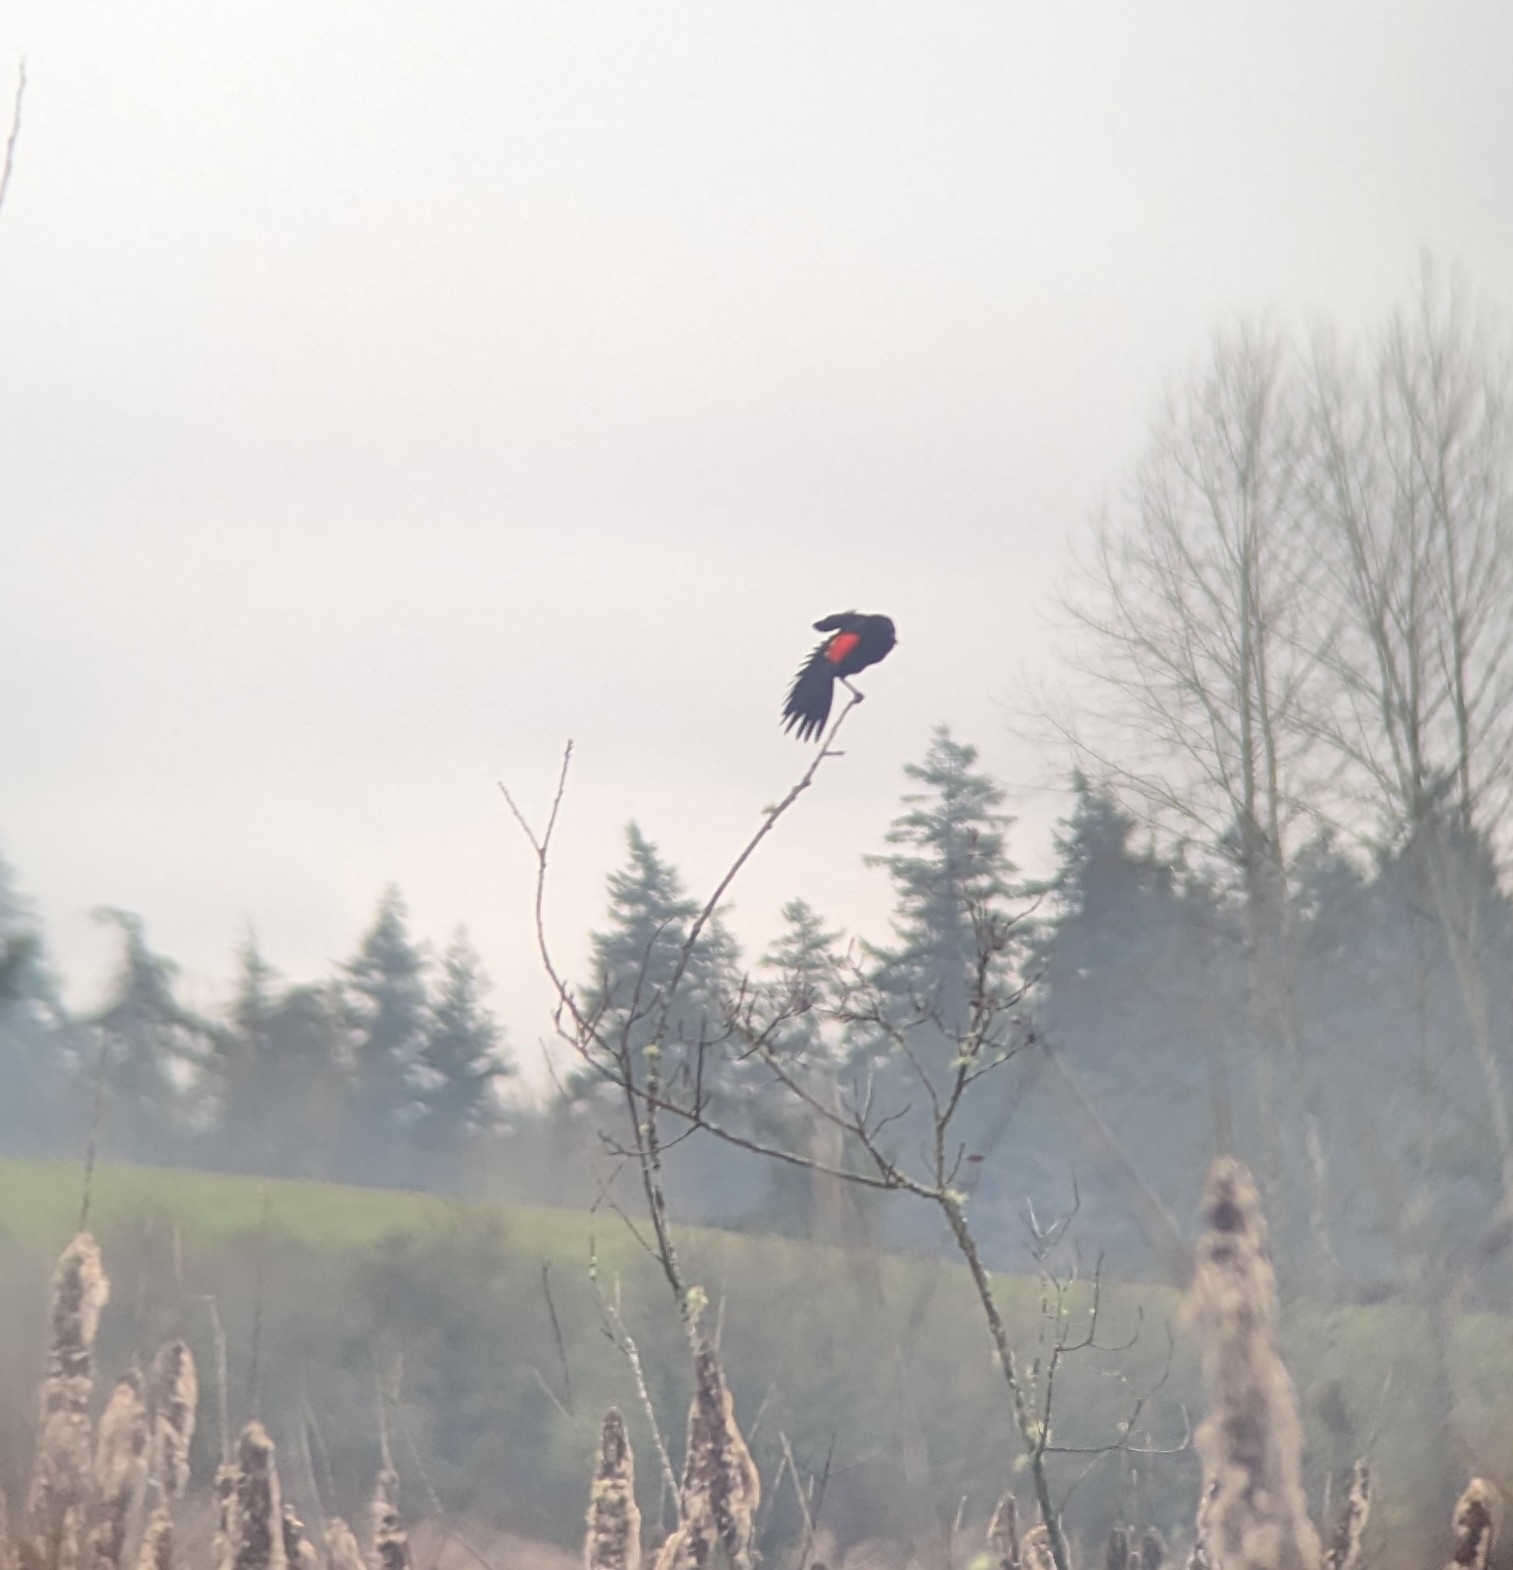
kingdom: Animalia
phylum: Chordata
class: Aves
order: Passeriformes
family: Icteridae
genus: Agelaius
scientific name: Agelaius phoeniceus
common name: Red-winged blackbird
